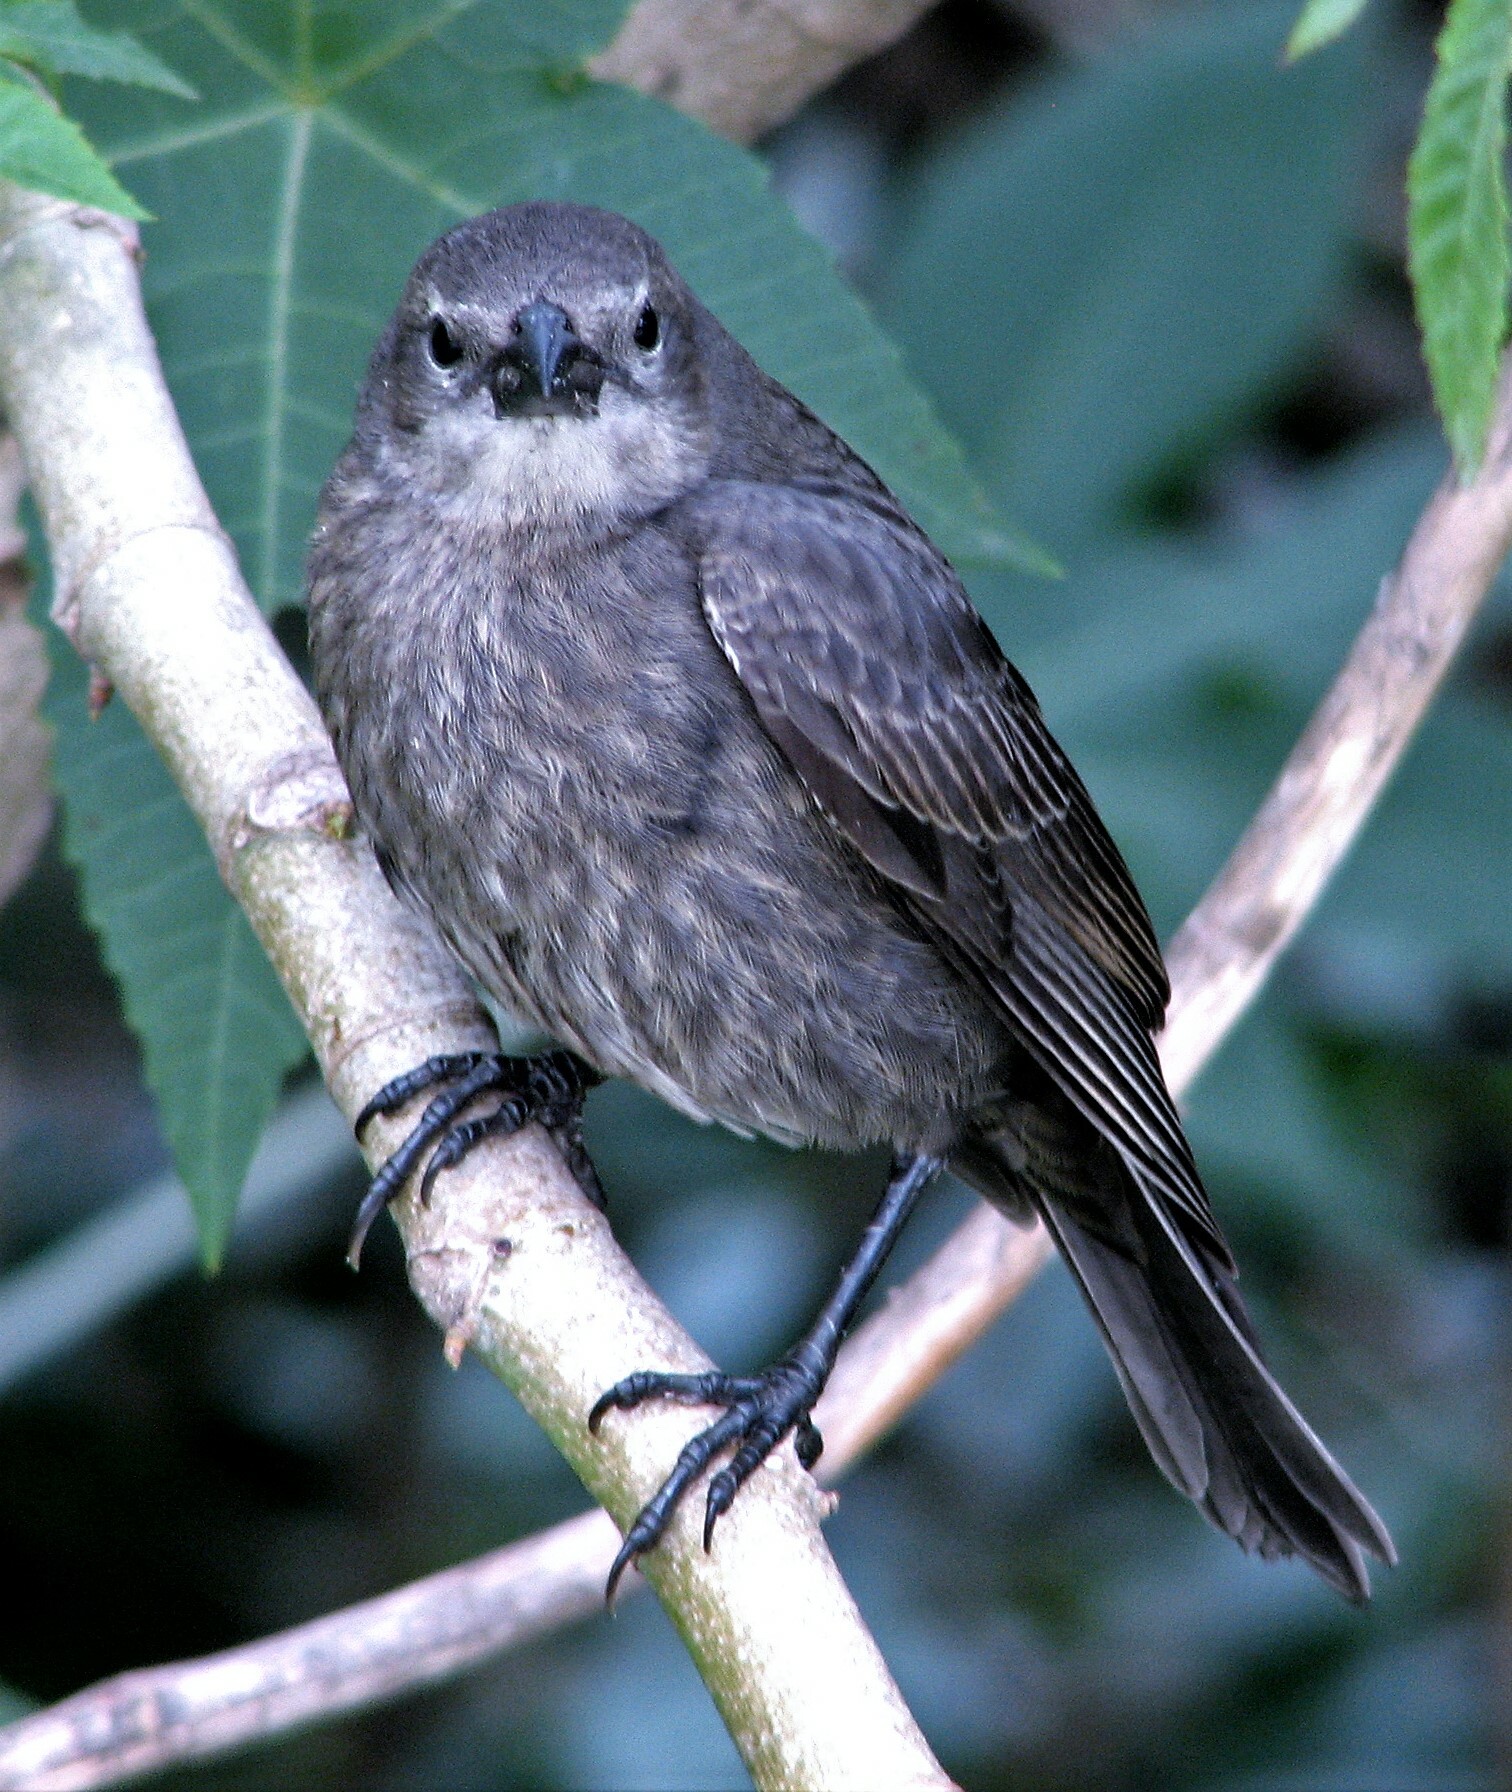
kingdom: Animalia
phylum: Chordata
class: Aves
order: Passeriformes
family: Icteridae
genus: Molothrus
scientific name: Molothrus bonariensis
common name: Shiny cowbird
